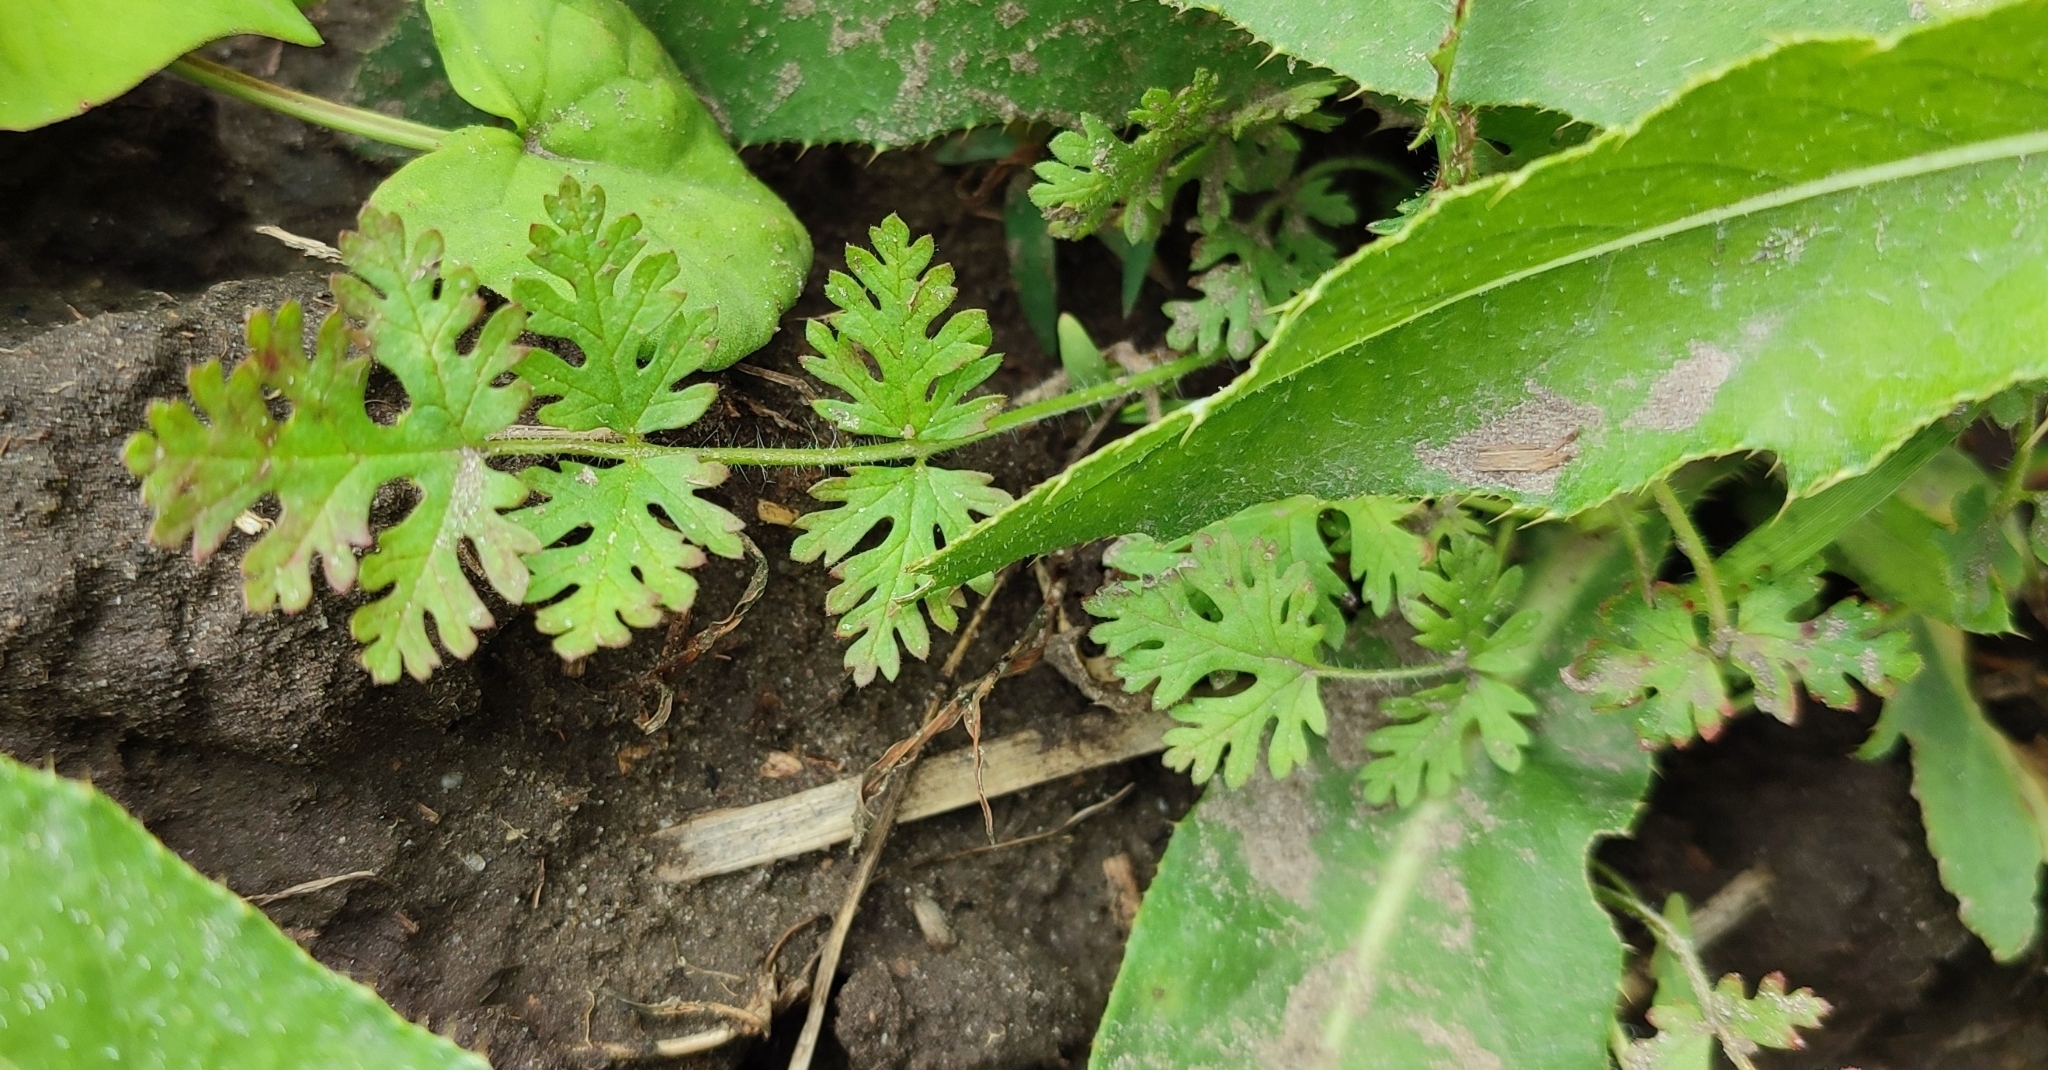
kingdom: Plantae
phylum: Tracheophyta
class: Magnoliopsida
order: Geraniales
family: Geraniaceae
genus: Erodium
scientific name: Erodium cicutarium
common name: Common stork's-bill
